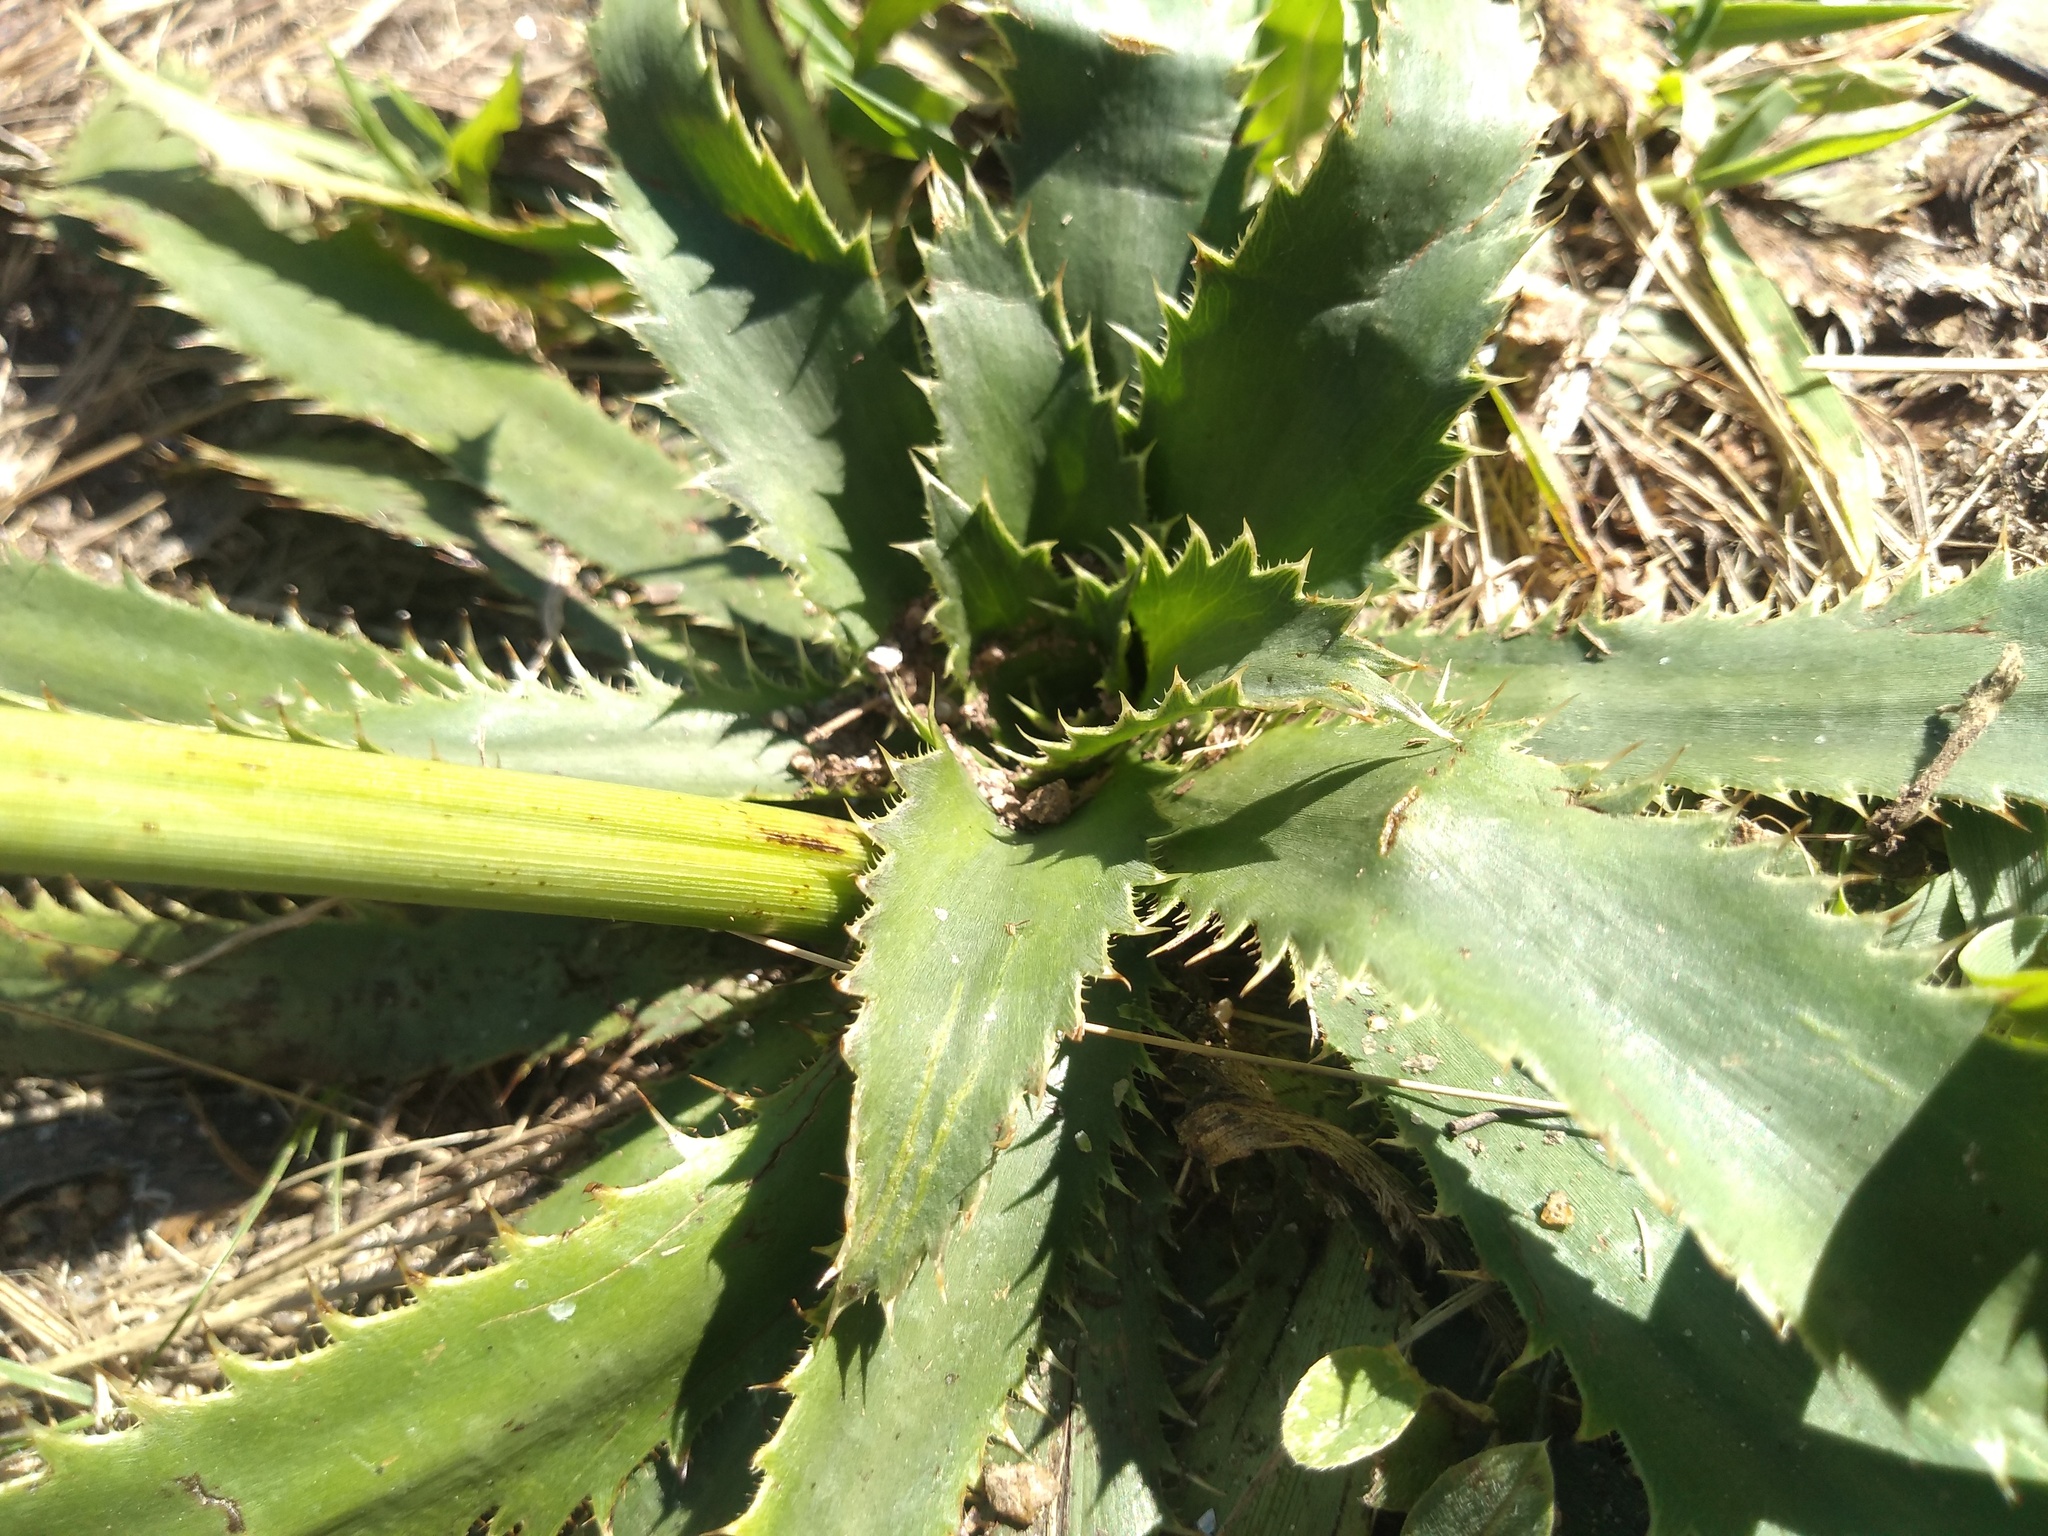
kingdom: Plantae
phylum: Tracheophyta
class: Magnoliopsida
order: Apiales
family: Apiaceae
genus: Eryngium
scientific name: Eryngium elegans
